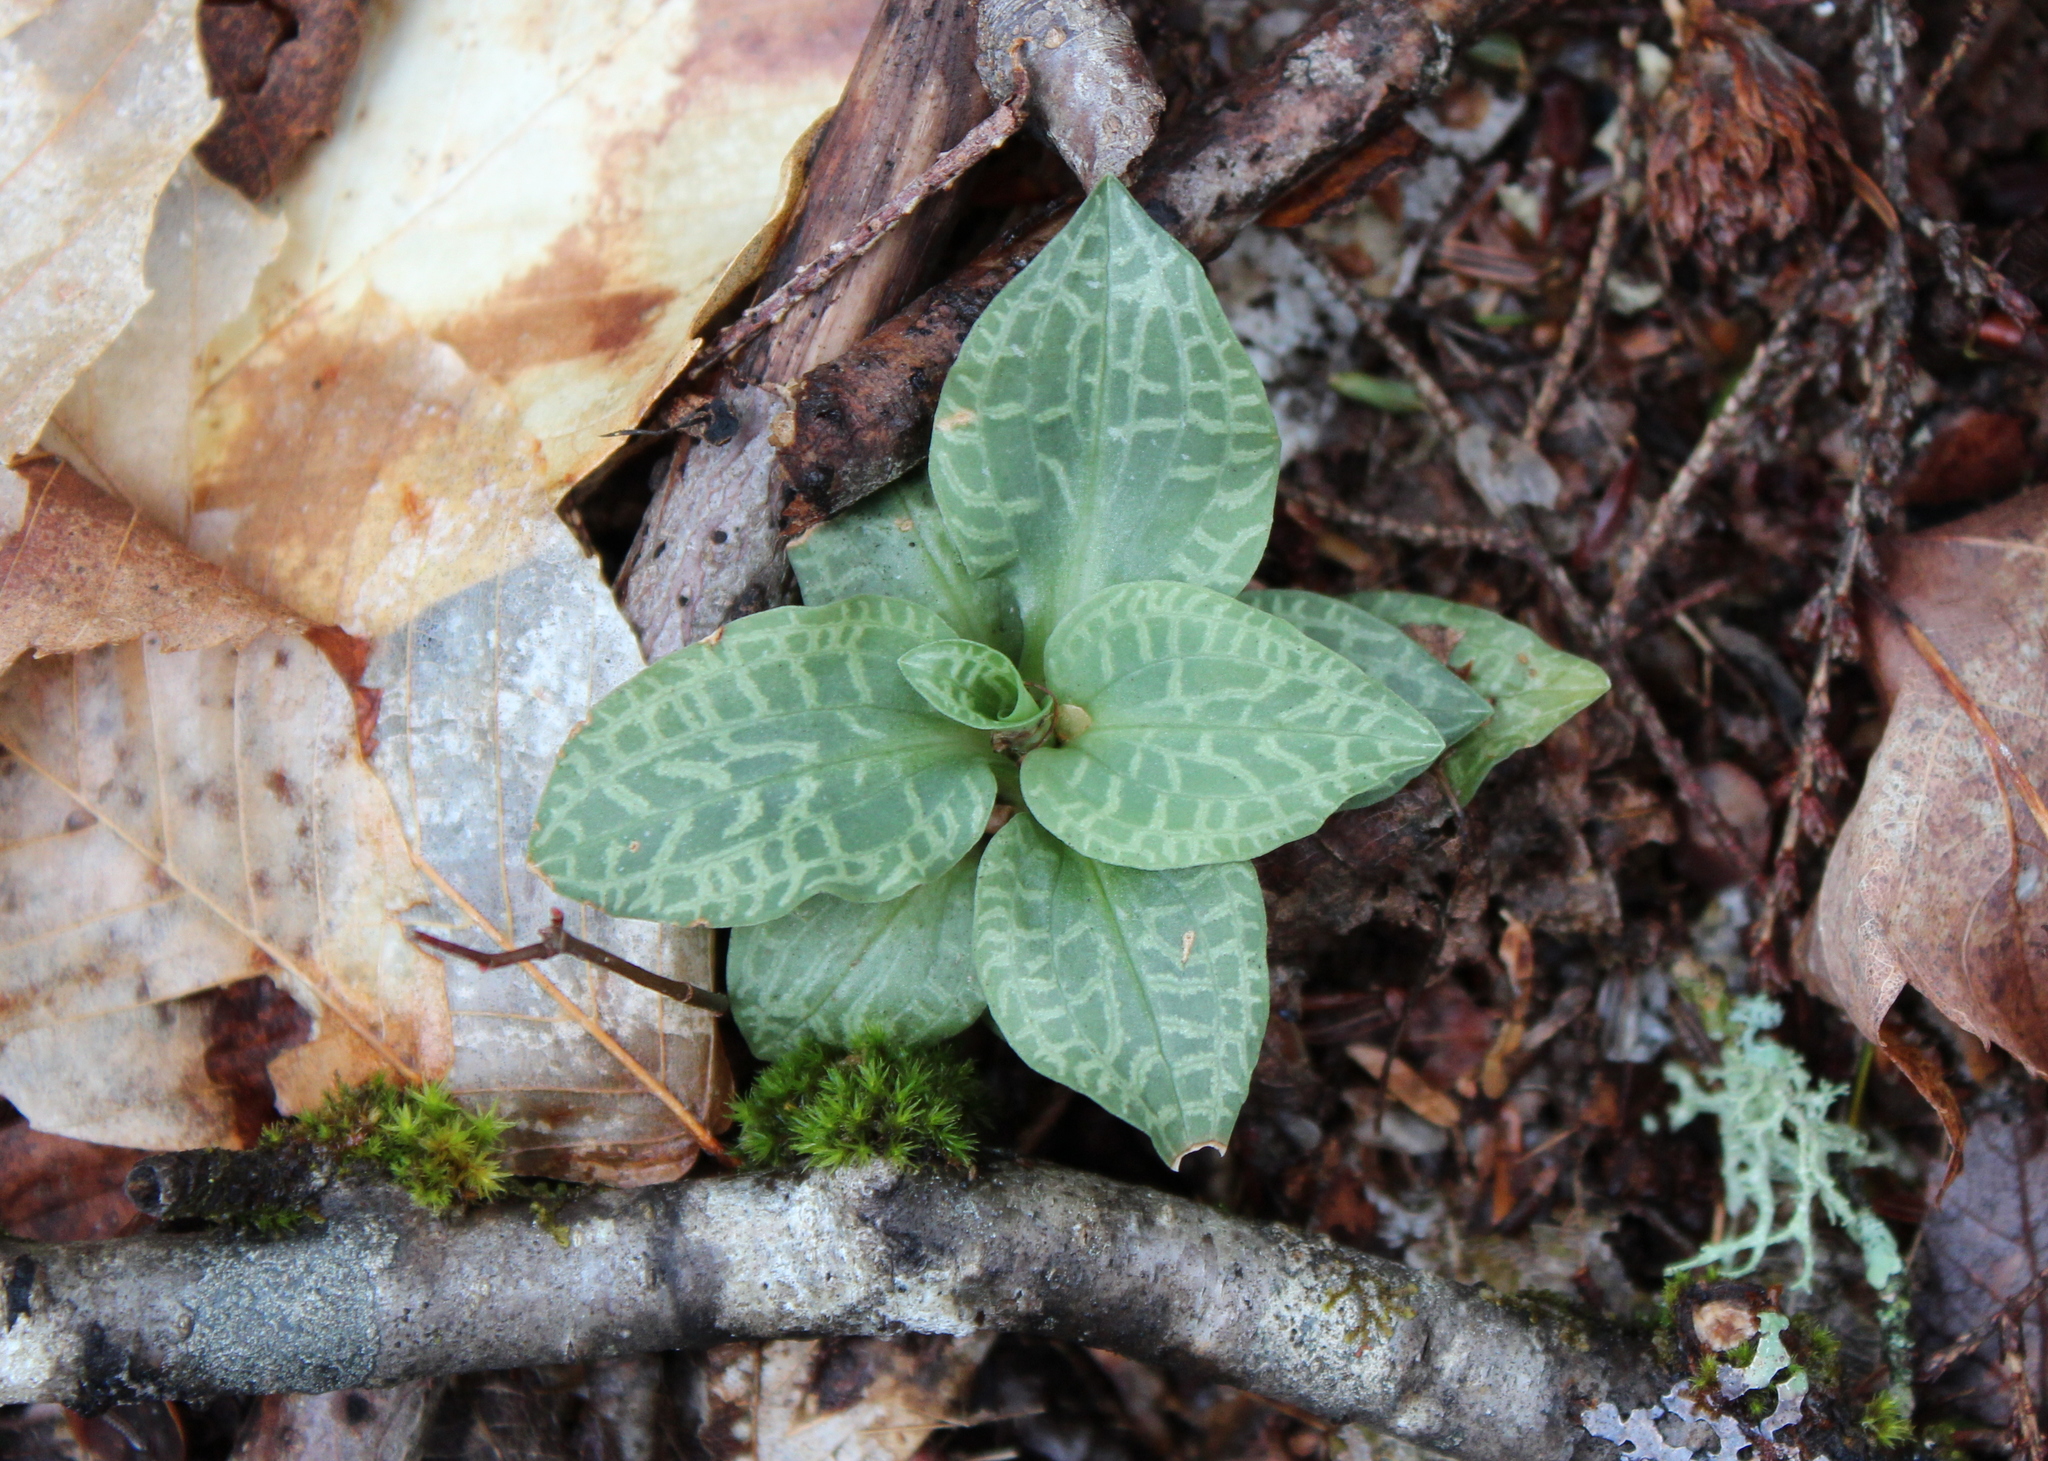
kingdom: Plantae
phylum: Tracheophyta
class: Liliopsida
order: Asparagales
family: Orchidaceae
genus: Goodyera
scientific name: Goodyera tesselata
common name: Checkered rattlesnake-plantain
